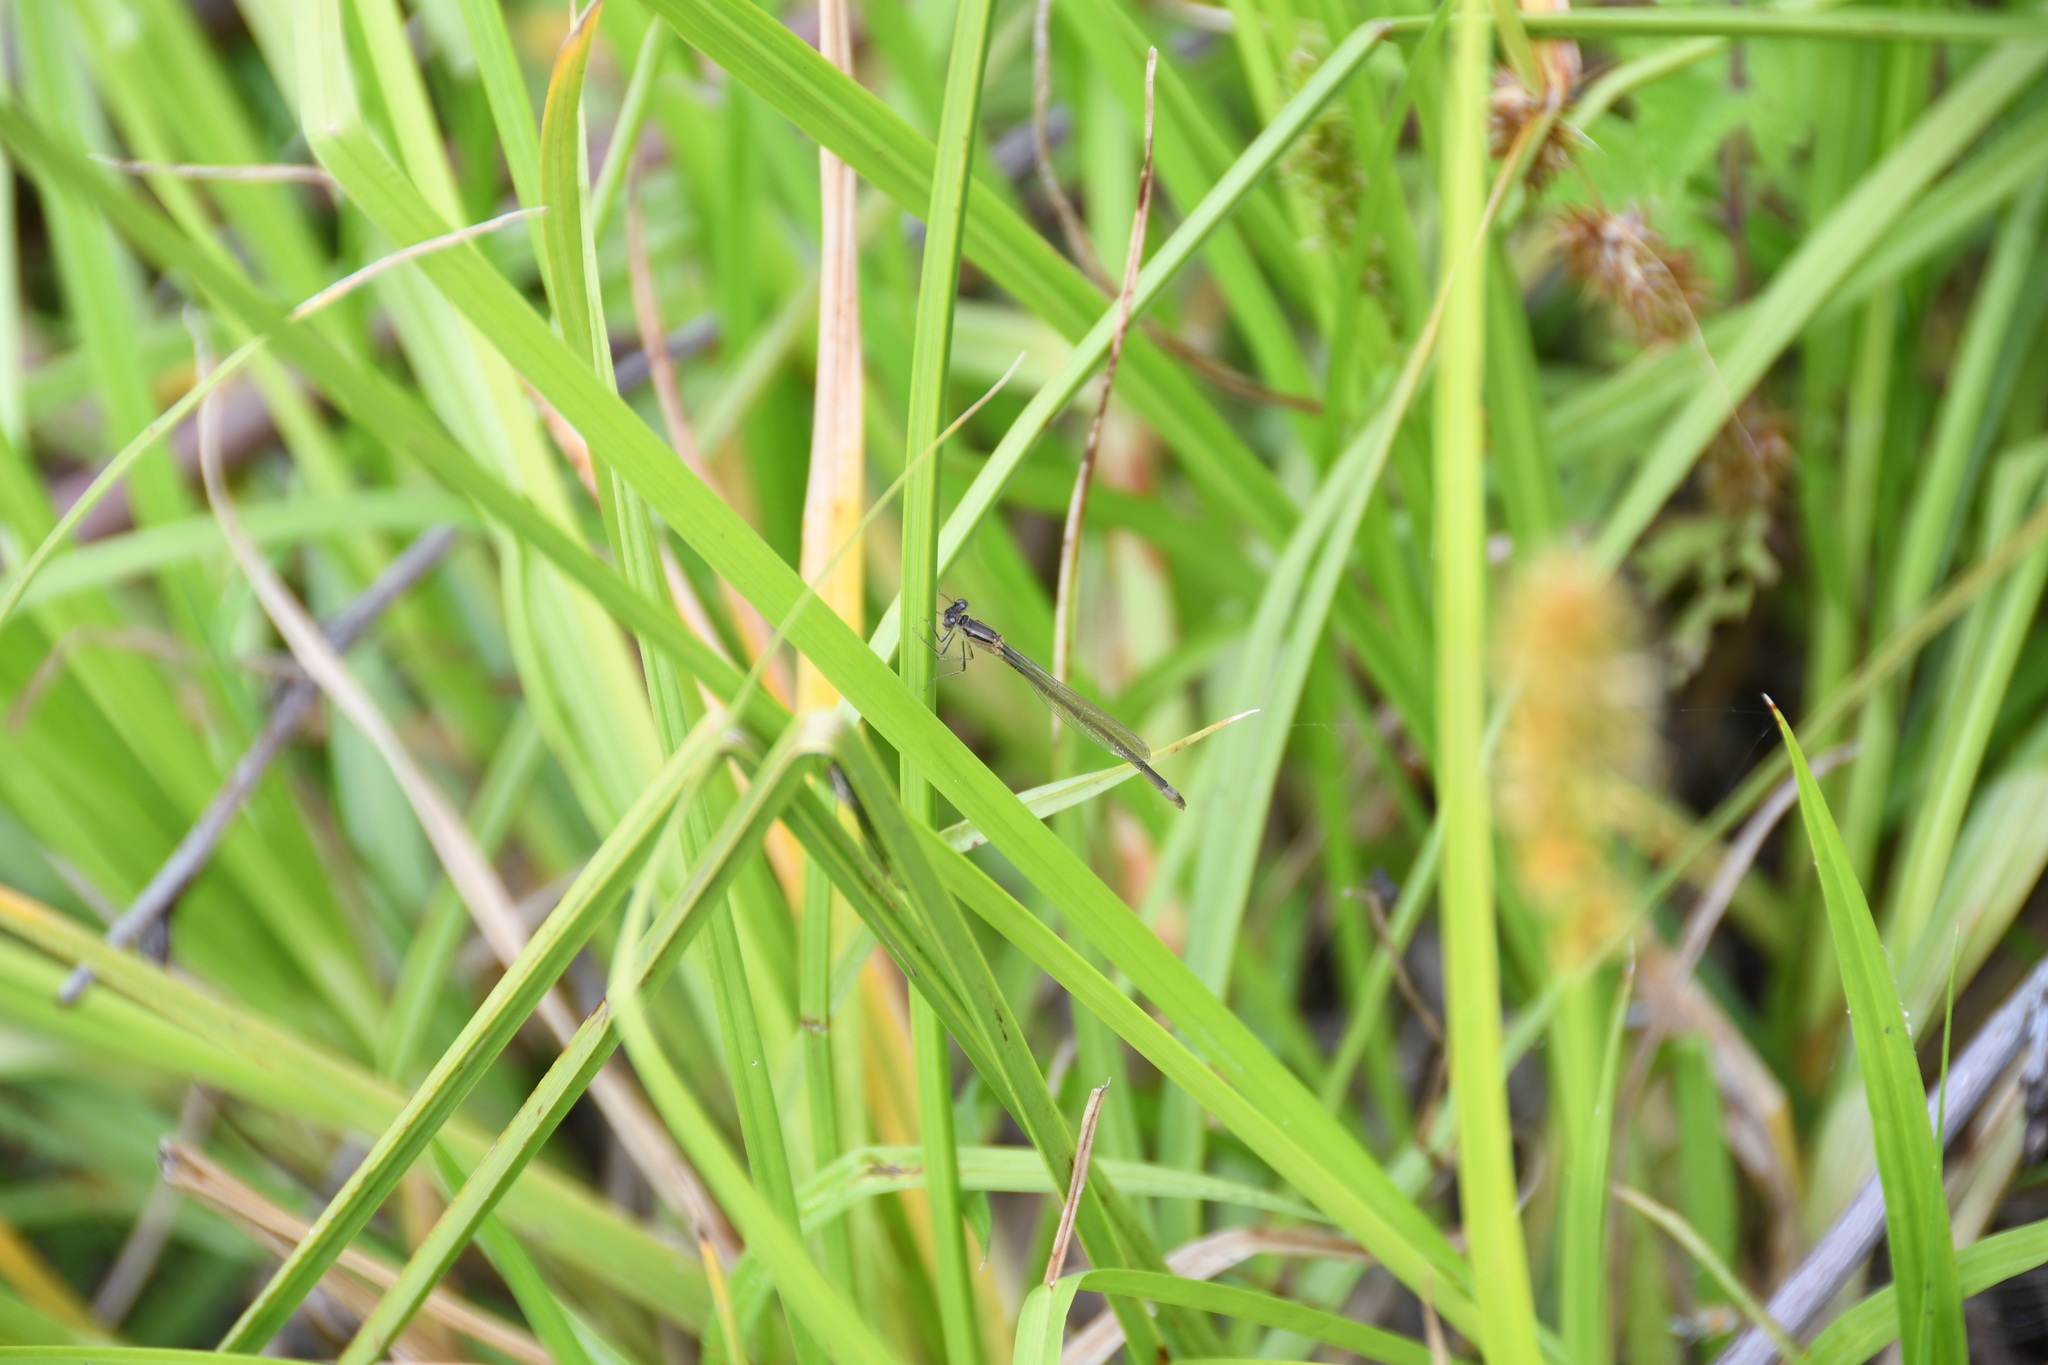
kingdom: Animalia
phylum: Arthropoda
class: Insecta
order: Odonata
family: Coenagrionidae
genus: Ischnura
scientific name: Ischnura elegans
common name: Blue-tailed damselfly
